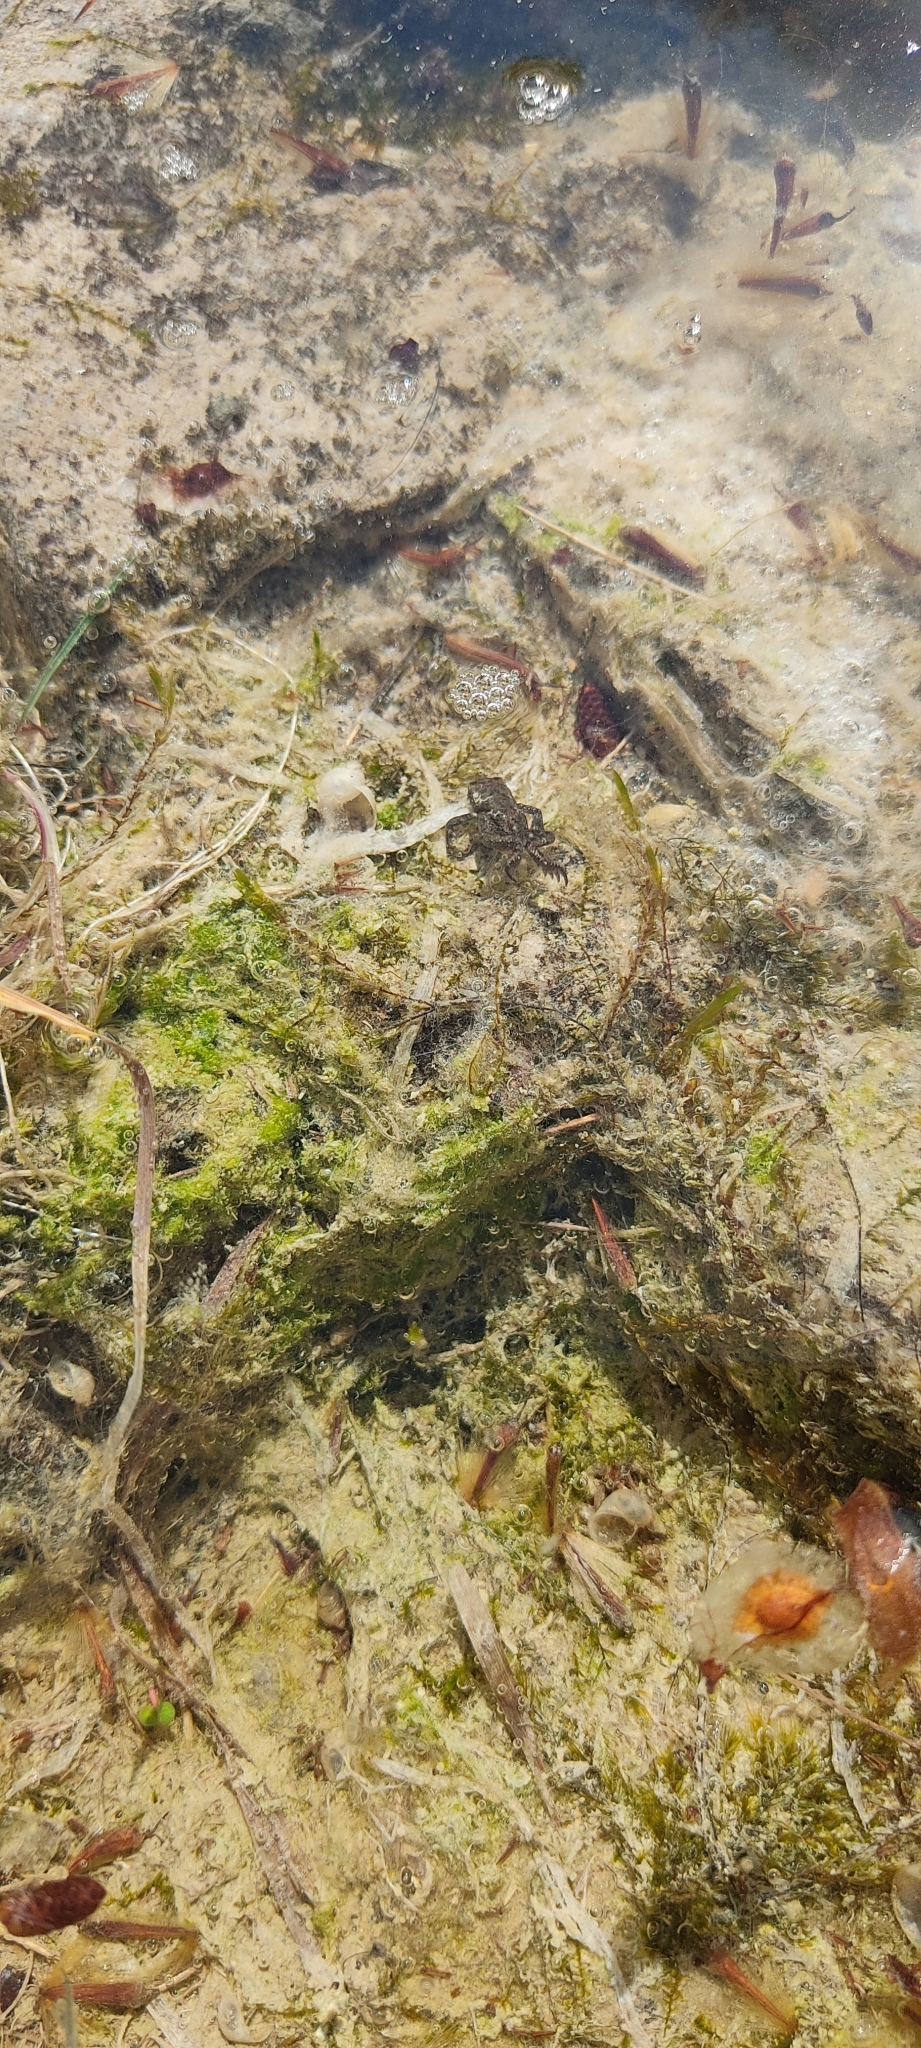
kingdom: Animalia
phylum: Chordata
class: Amphibia
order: Anura
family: Bufonidae
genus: Epidalea
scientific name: Epidalea calamita
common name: Natterjack toad
